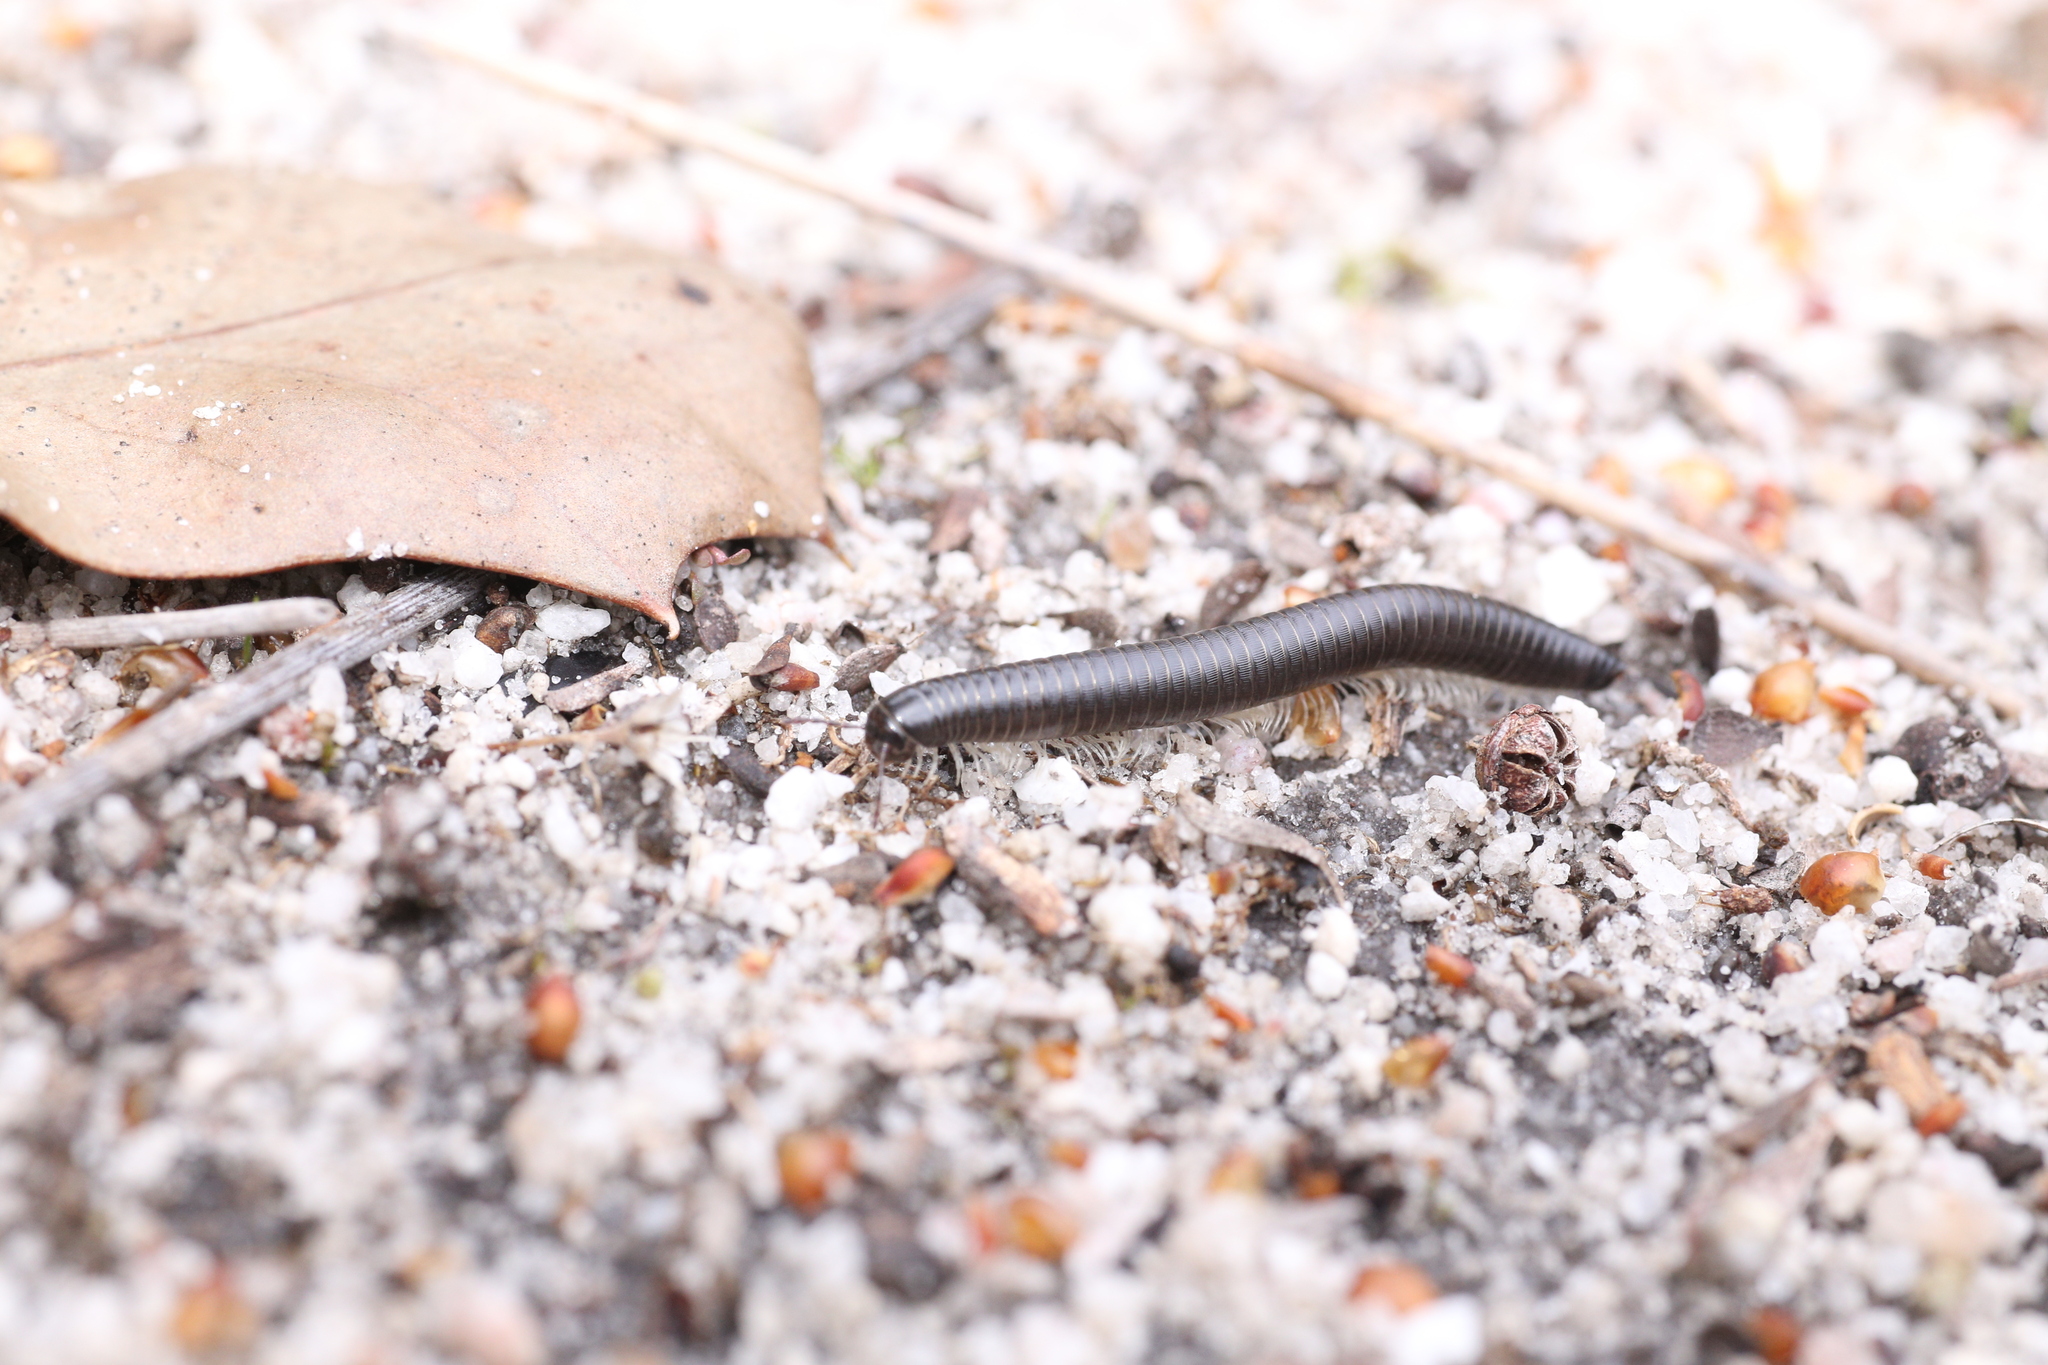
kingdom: Animalia
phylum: Arthropoda
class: Diplopoda
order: Julida
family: Julidae
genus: Ommatoiulus
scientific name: Ommatoiulus moreleti
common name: Portuguese millipede
